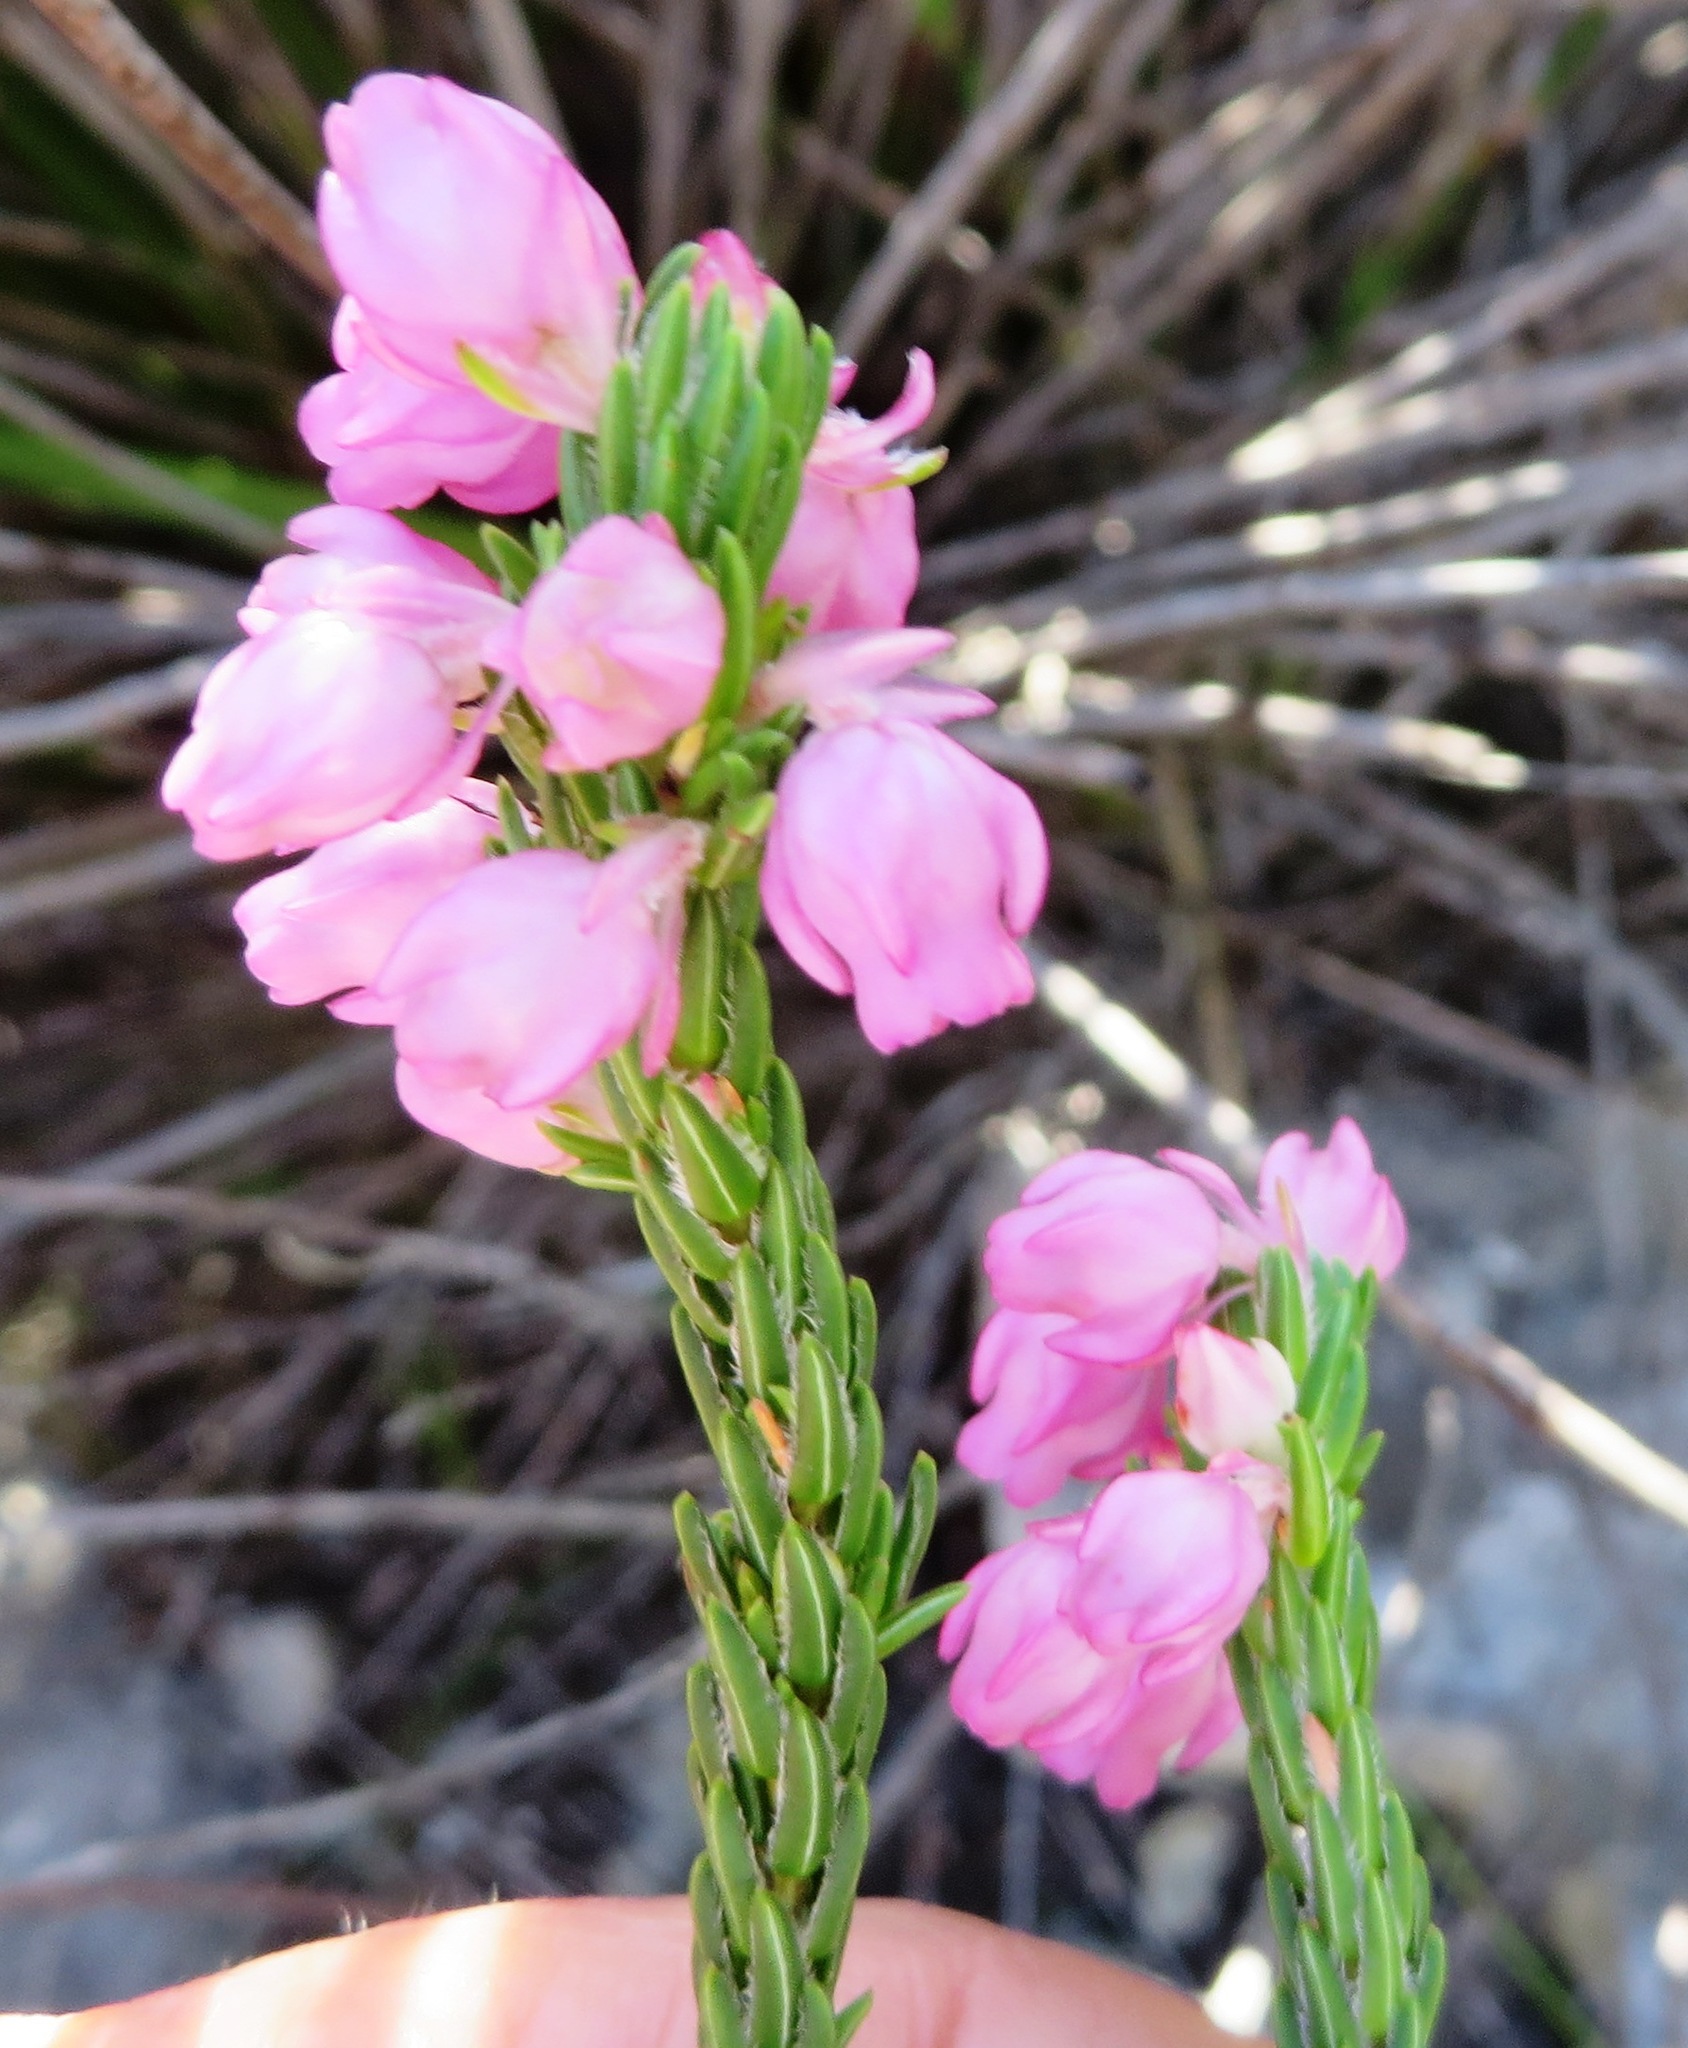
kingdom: Plantae
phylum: Tracheophyta
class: Magnoliopsida
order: Ericales
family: Ericaceae
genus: Erica
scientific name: Erica excavata
